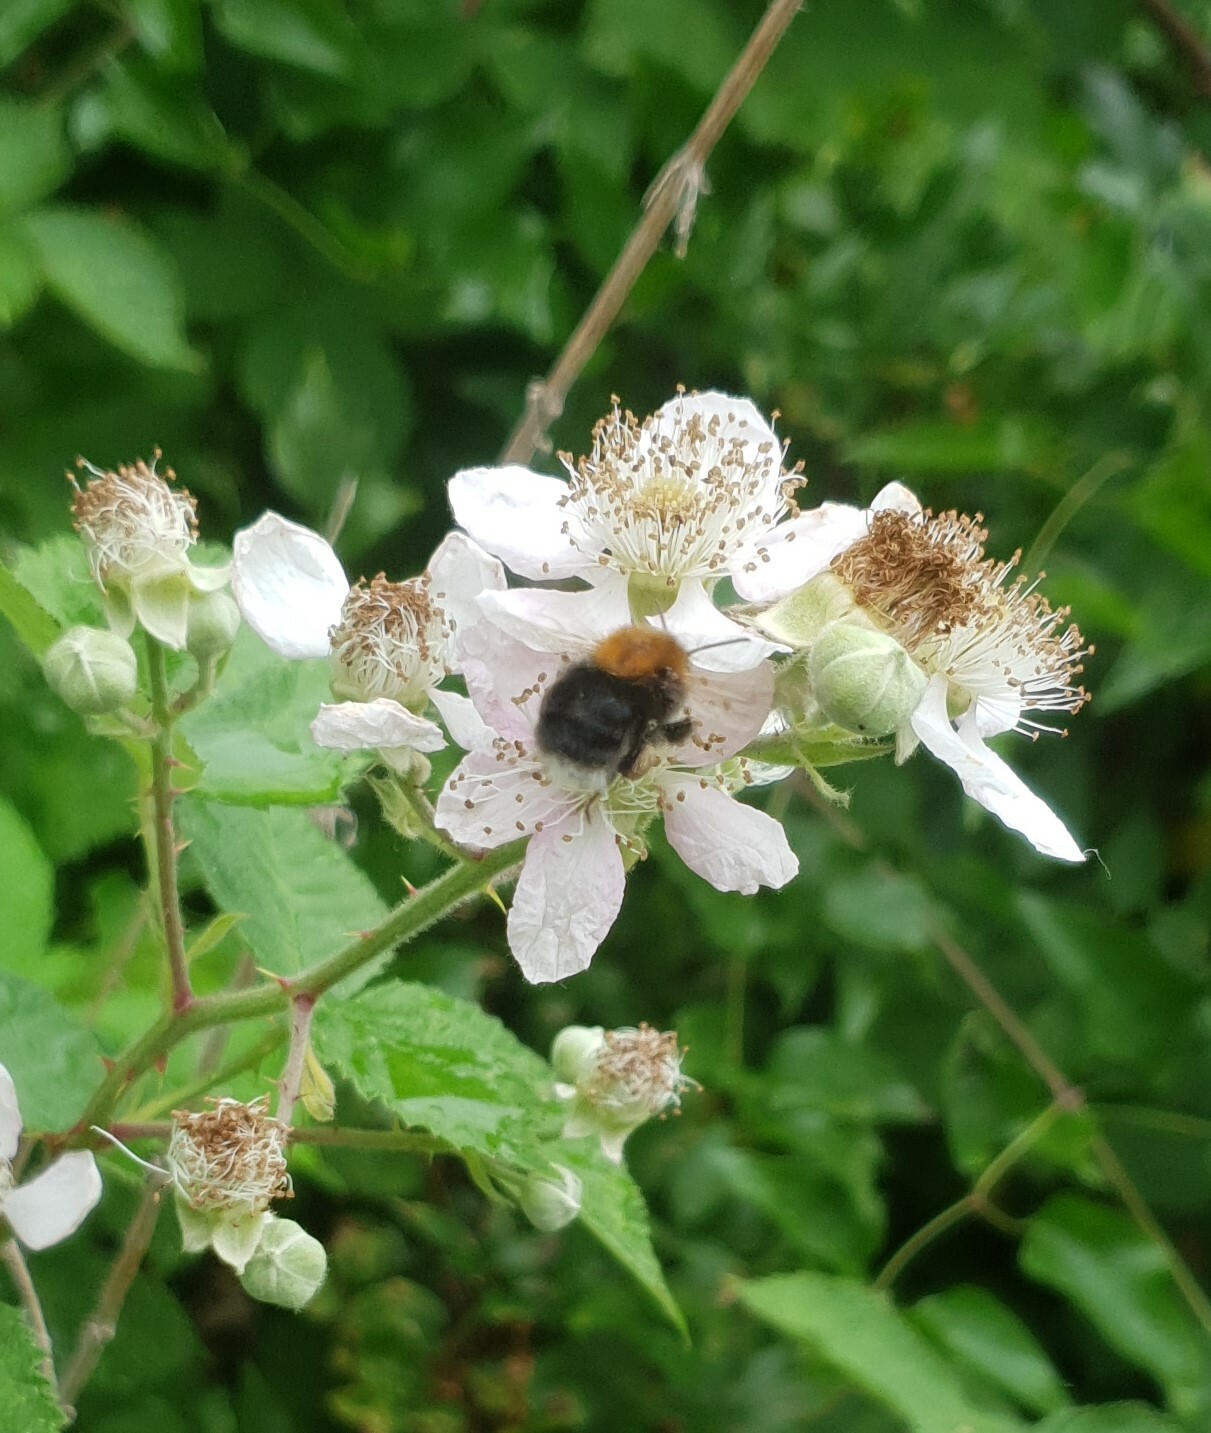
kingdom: Animalia
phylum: Arthropoda
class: Insecta
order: Hymenoptera
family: Apidae
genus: Bombus
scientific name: Bombus hypnorum
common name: New garden bumblebee
